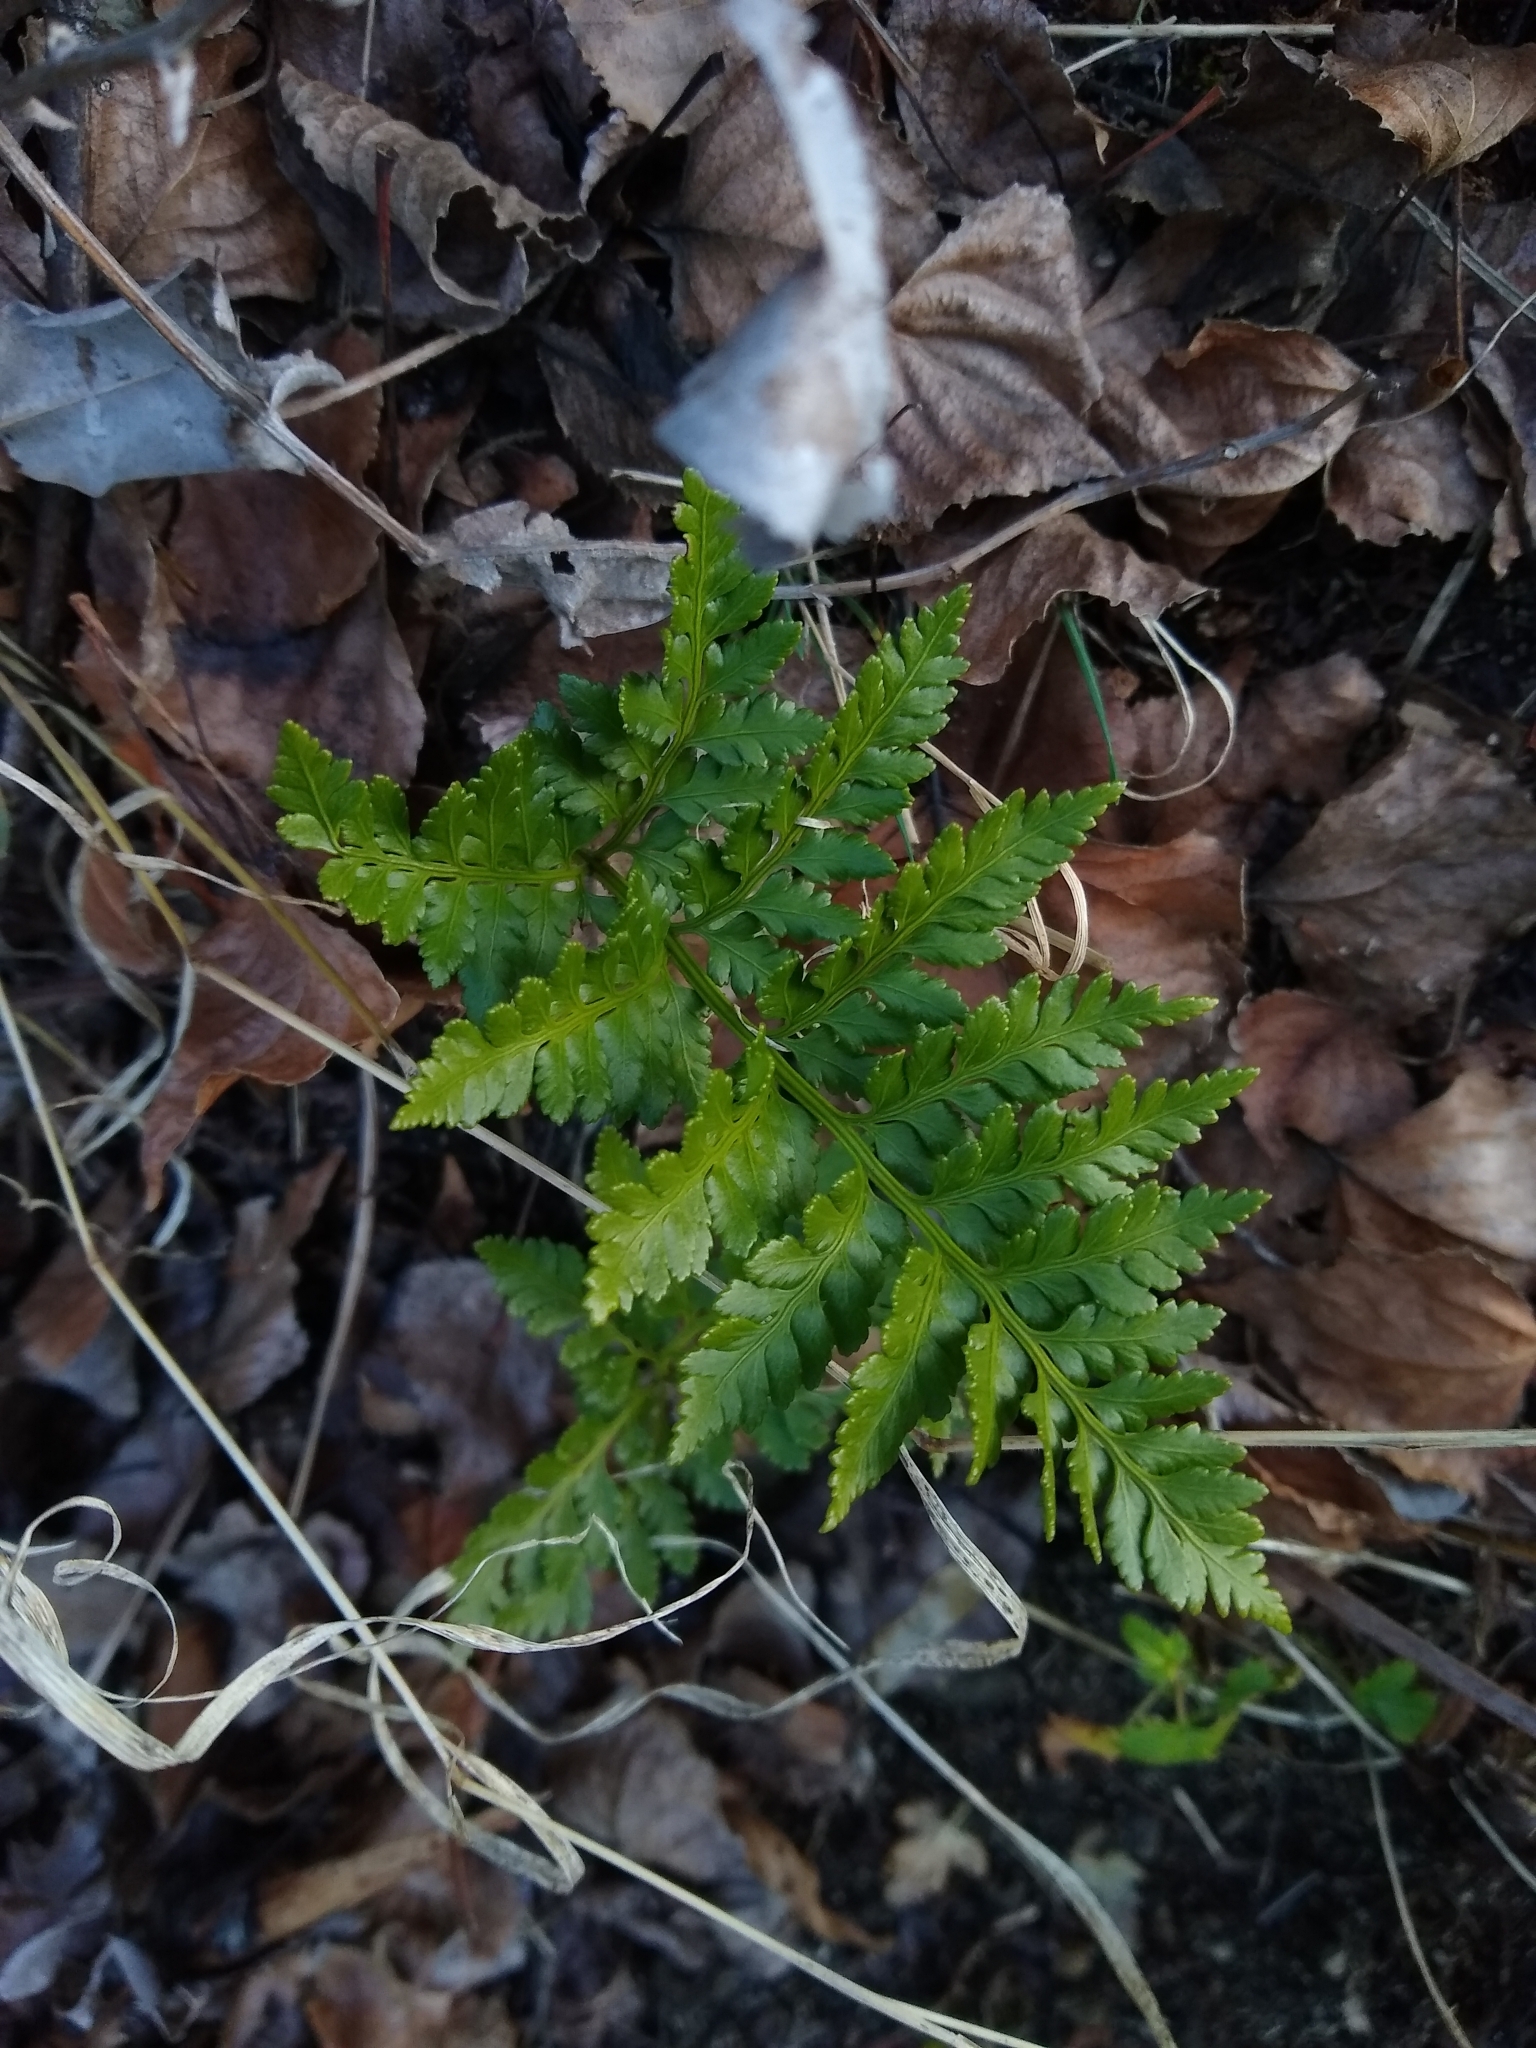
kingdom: Plantae
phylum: Tracheophyta
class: Polypodiopsida
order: Polypodiales
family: Dryopteridaceae
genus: Rumohra
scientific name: Rumohra adiantiformis
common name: Leather fern
